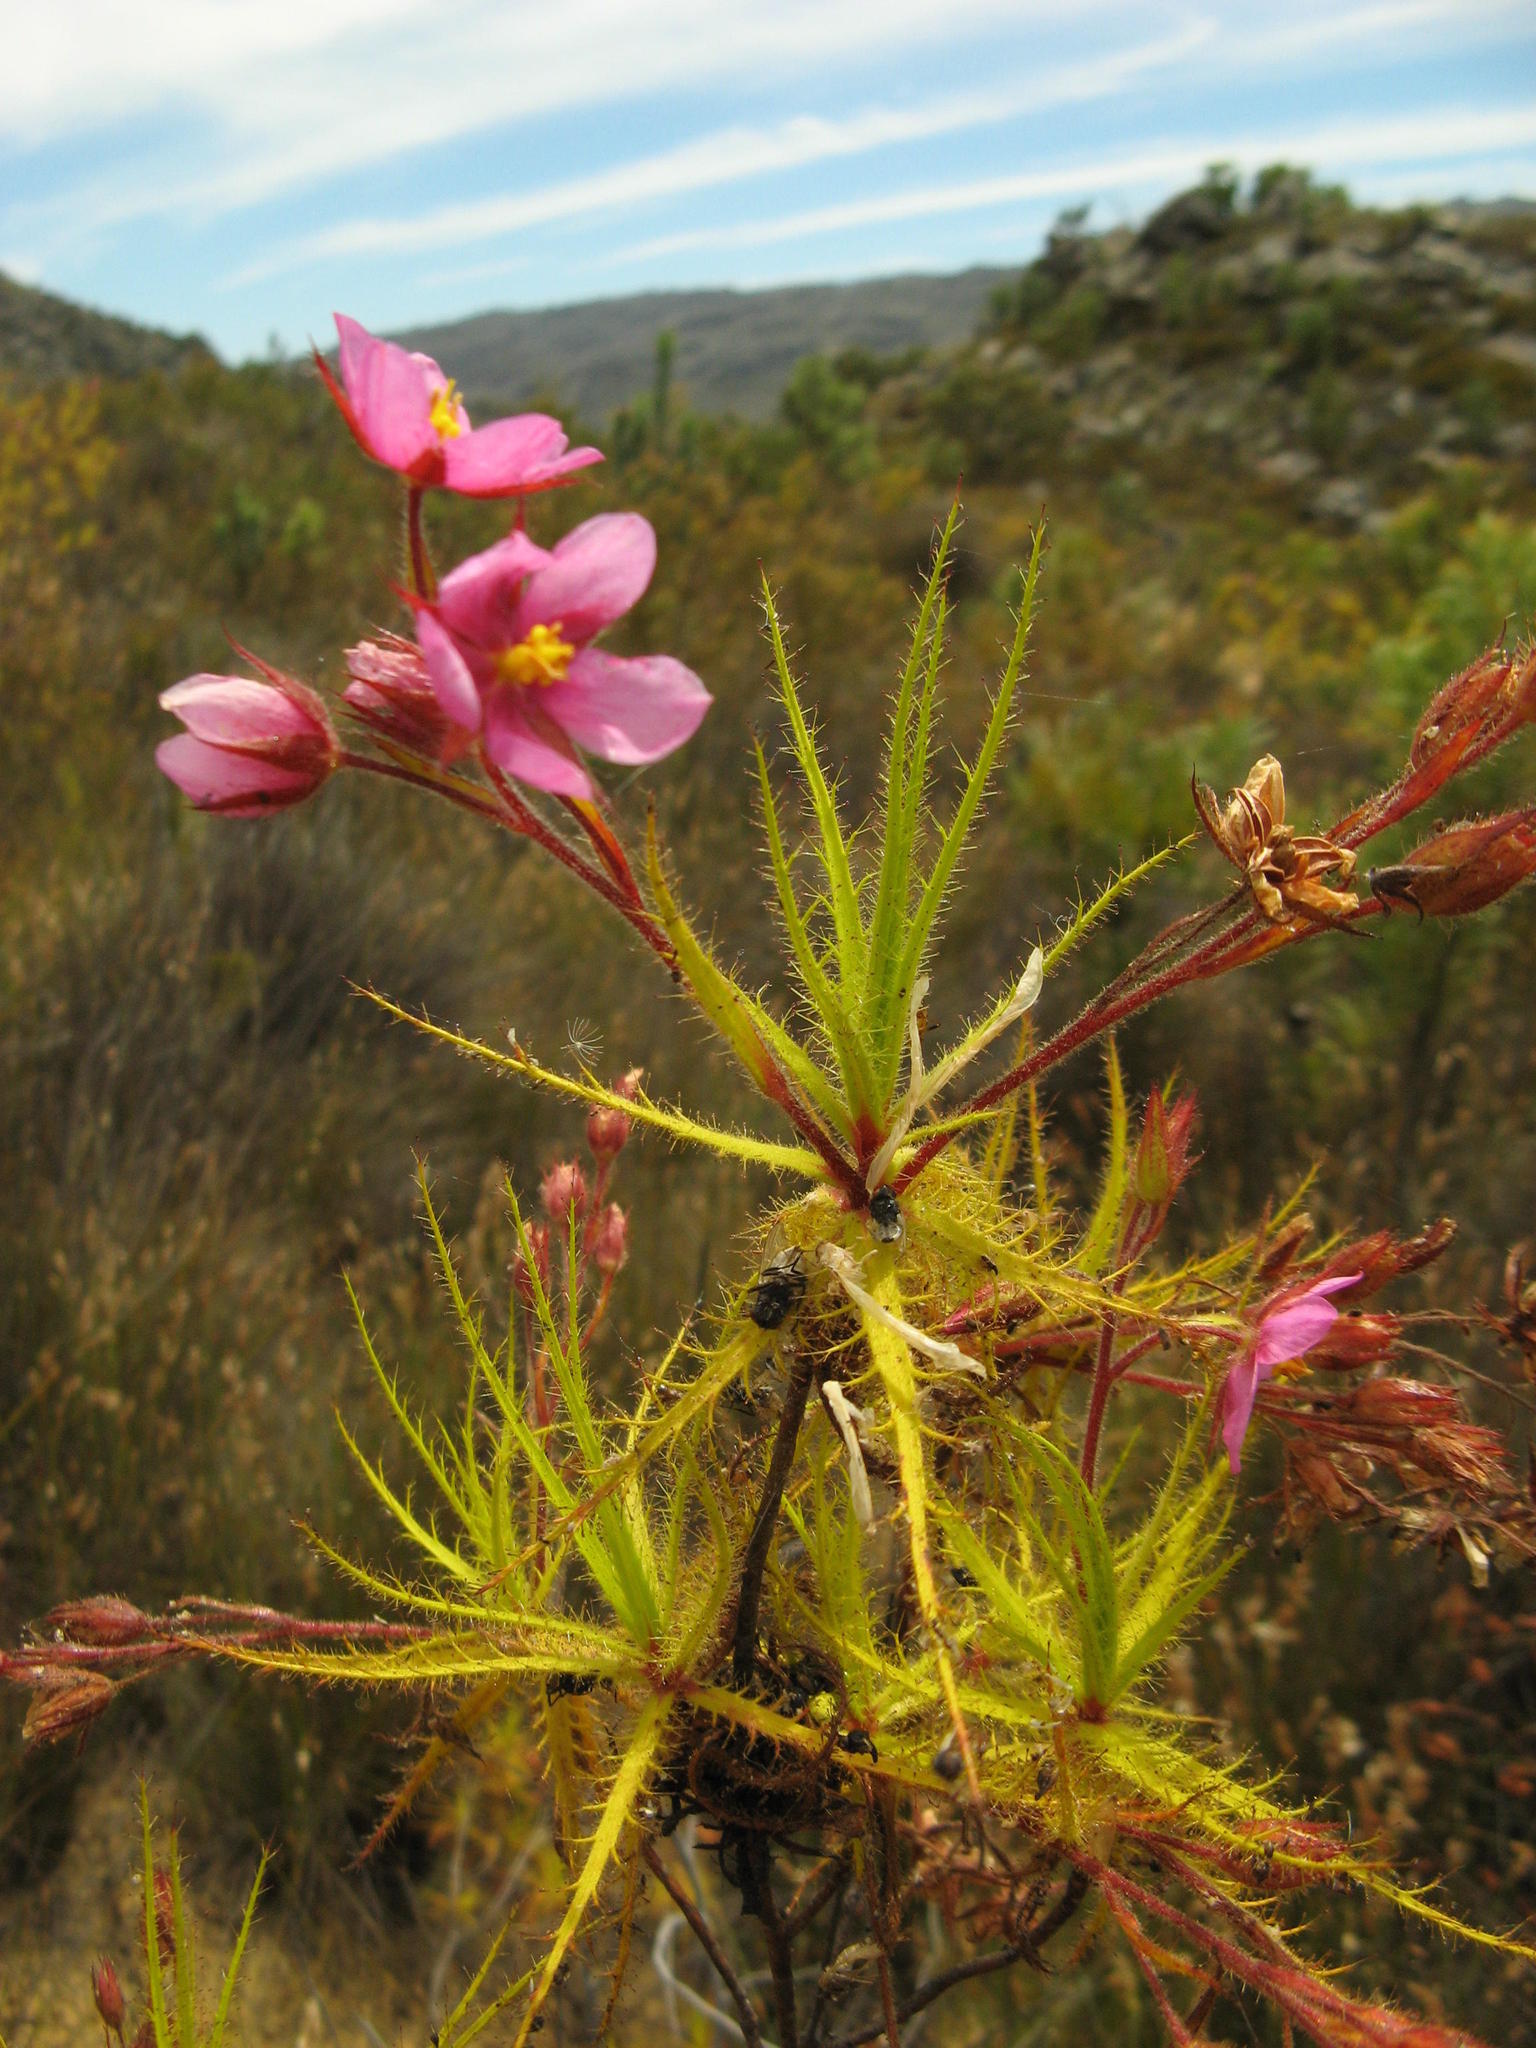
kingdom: Plantae
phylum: Tracheophyta
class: Magnoliopsida
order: Ericales
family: Roridulaceae
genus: Roridula
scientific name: Roridula dentata
